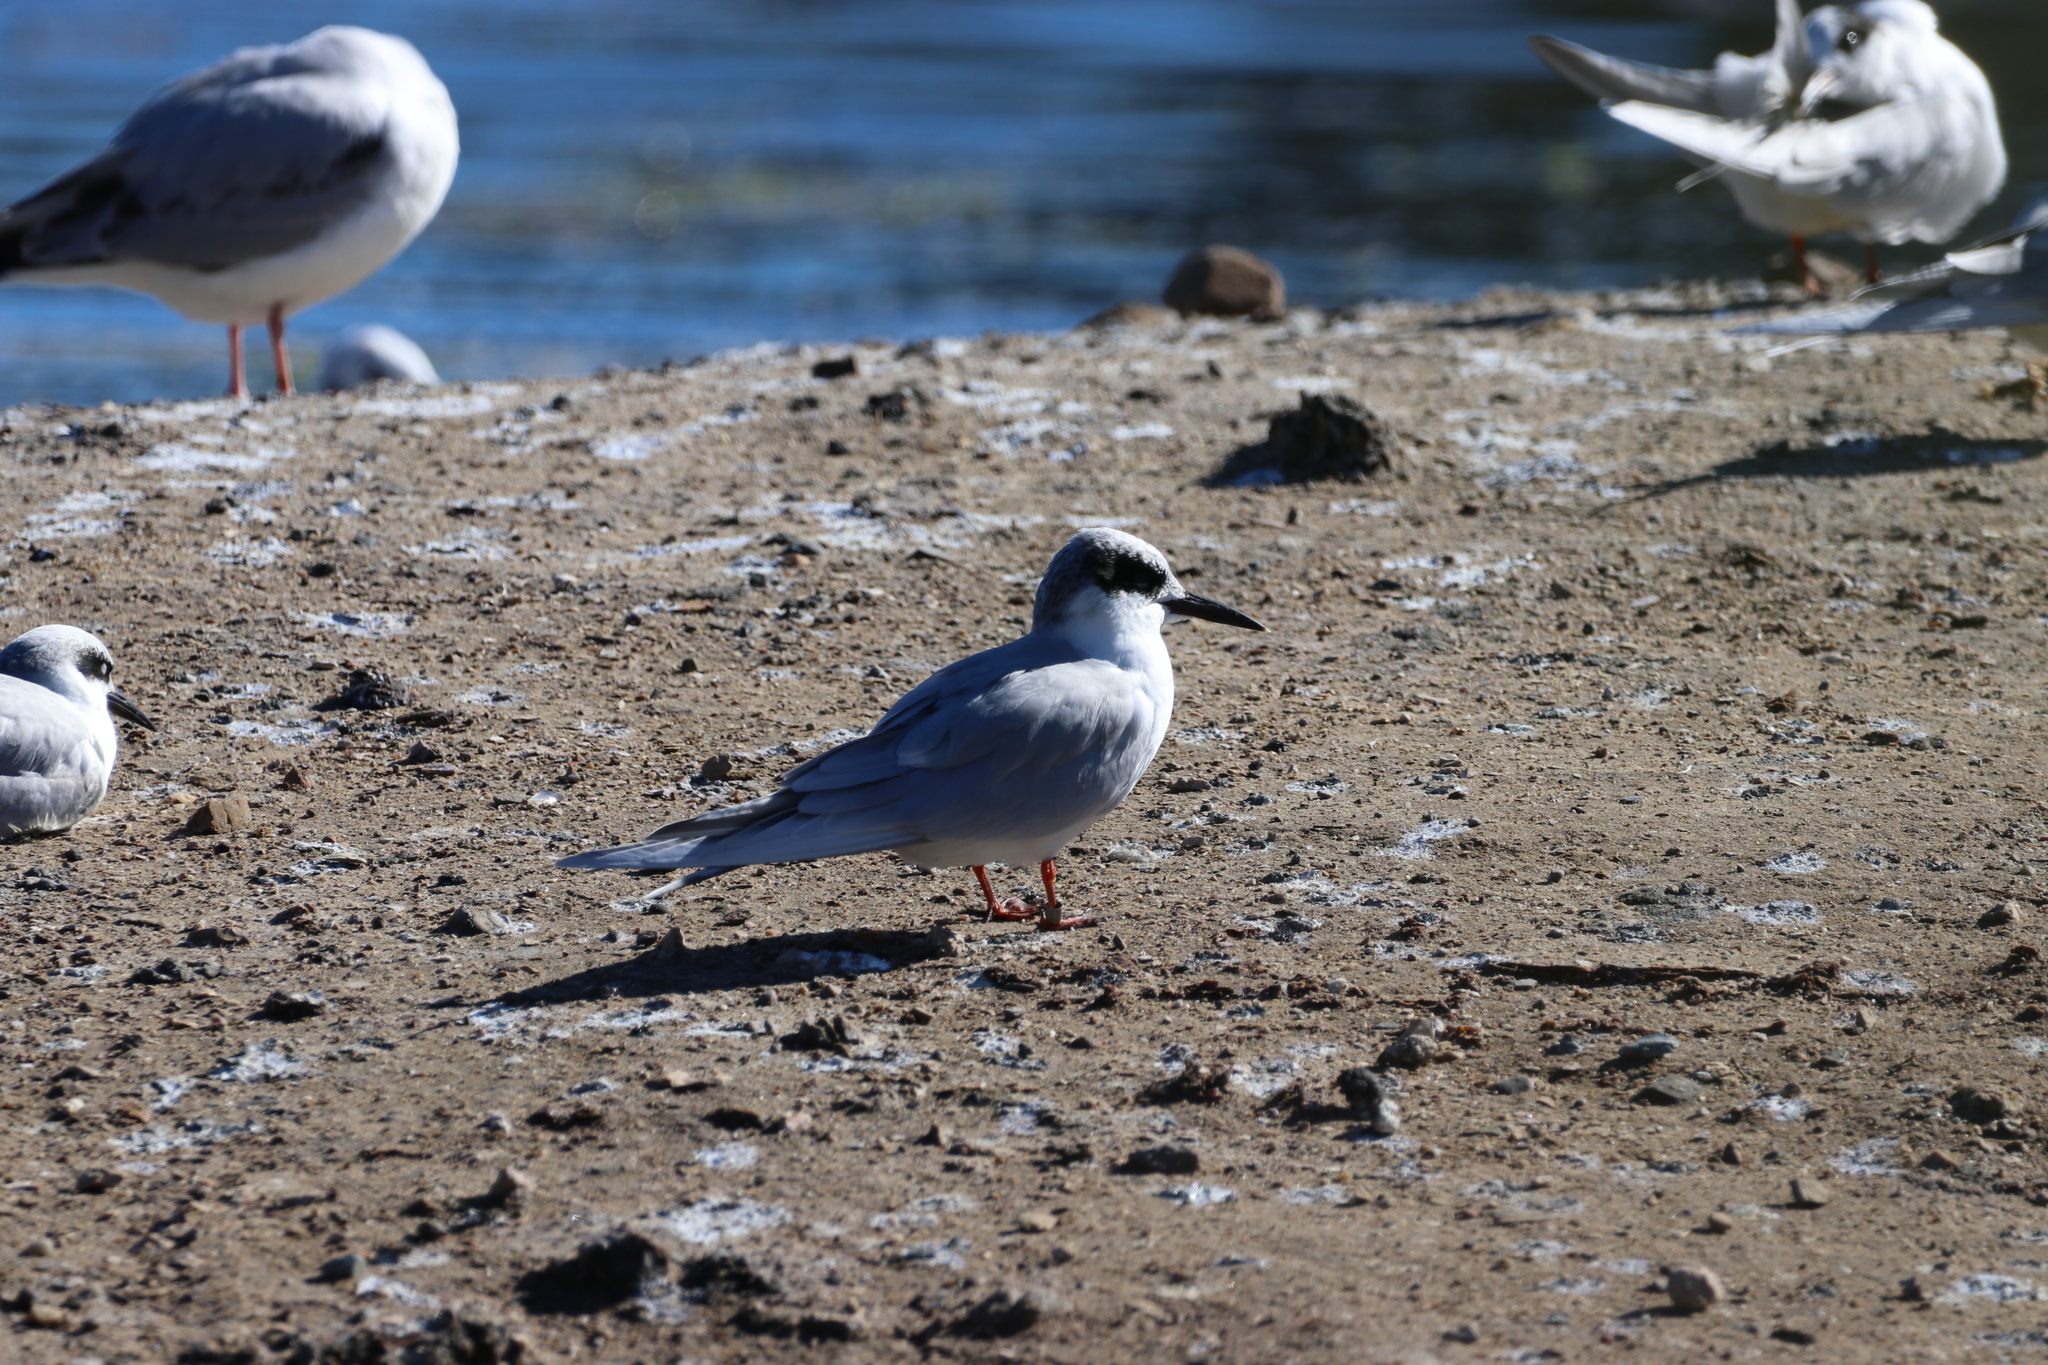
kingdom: Animalia
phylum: Chordata
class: Aves
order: Charadriiformes
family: Laridae
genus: Sterna
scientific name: Sterna forsteri
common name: Forster's tern
